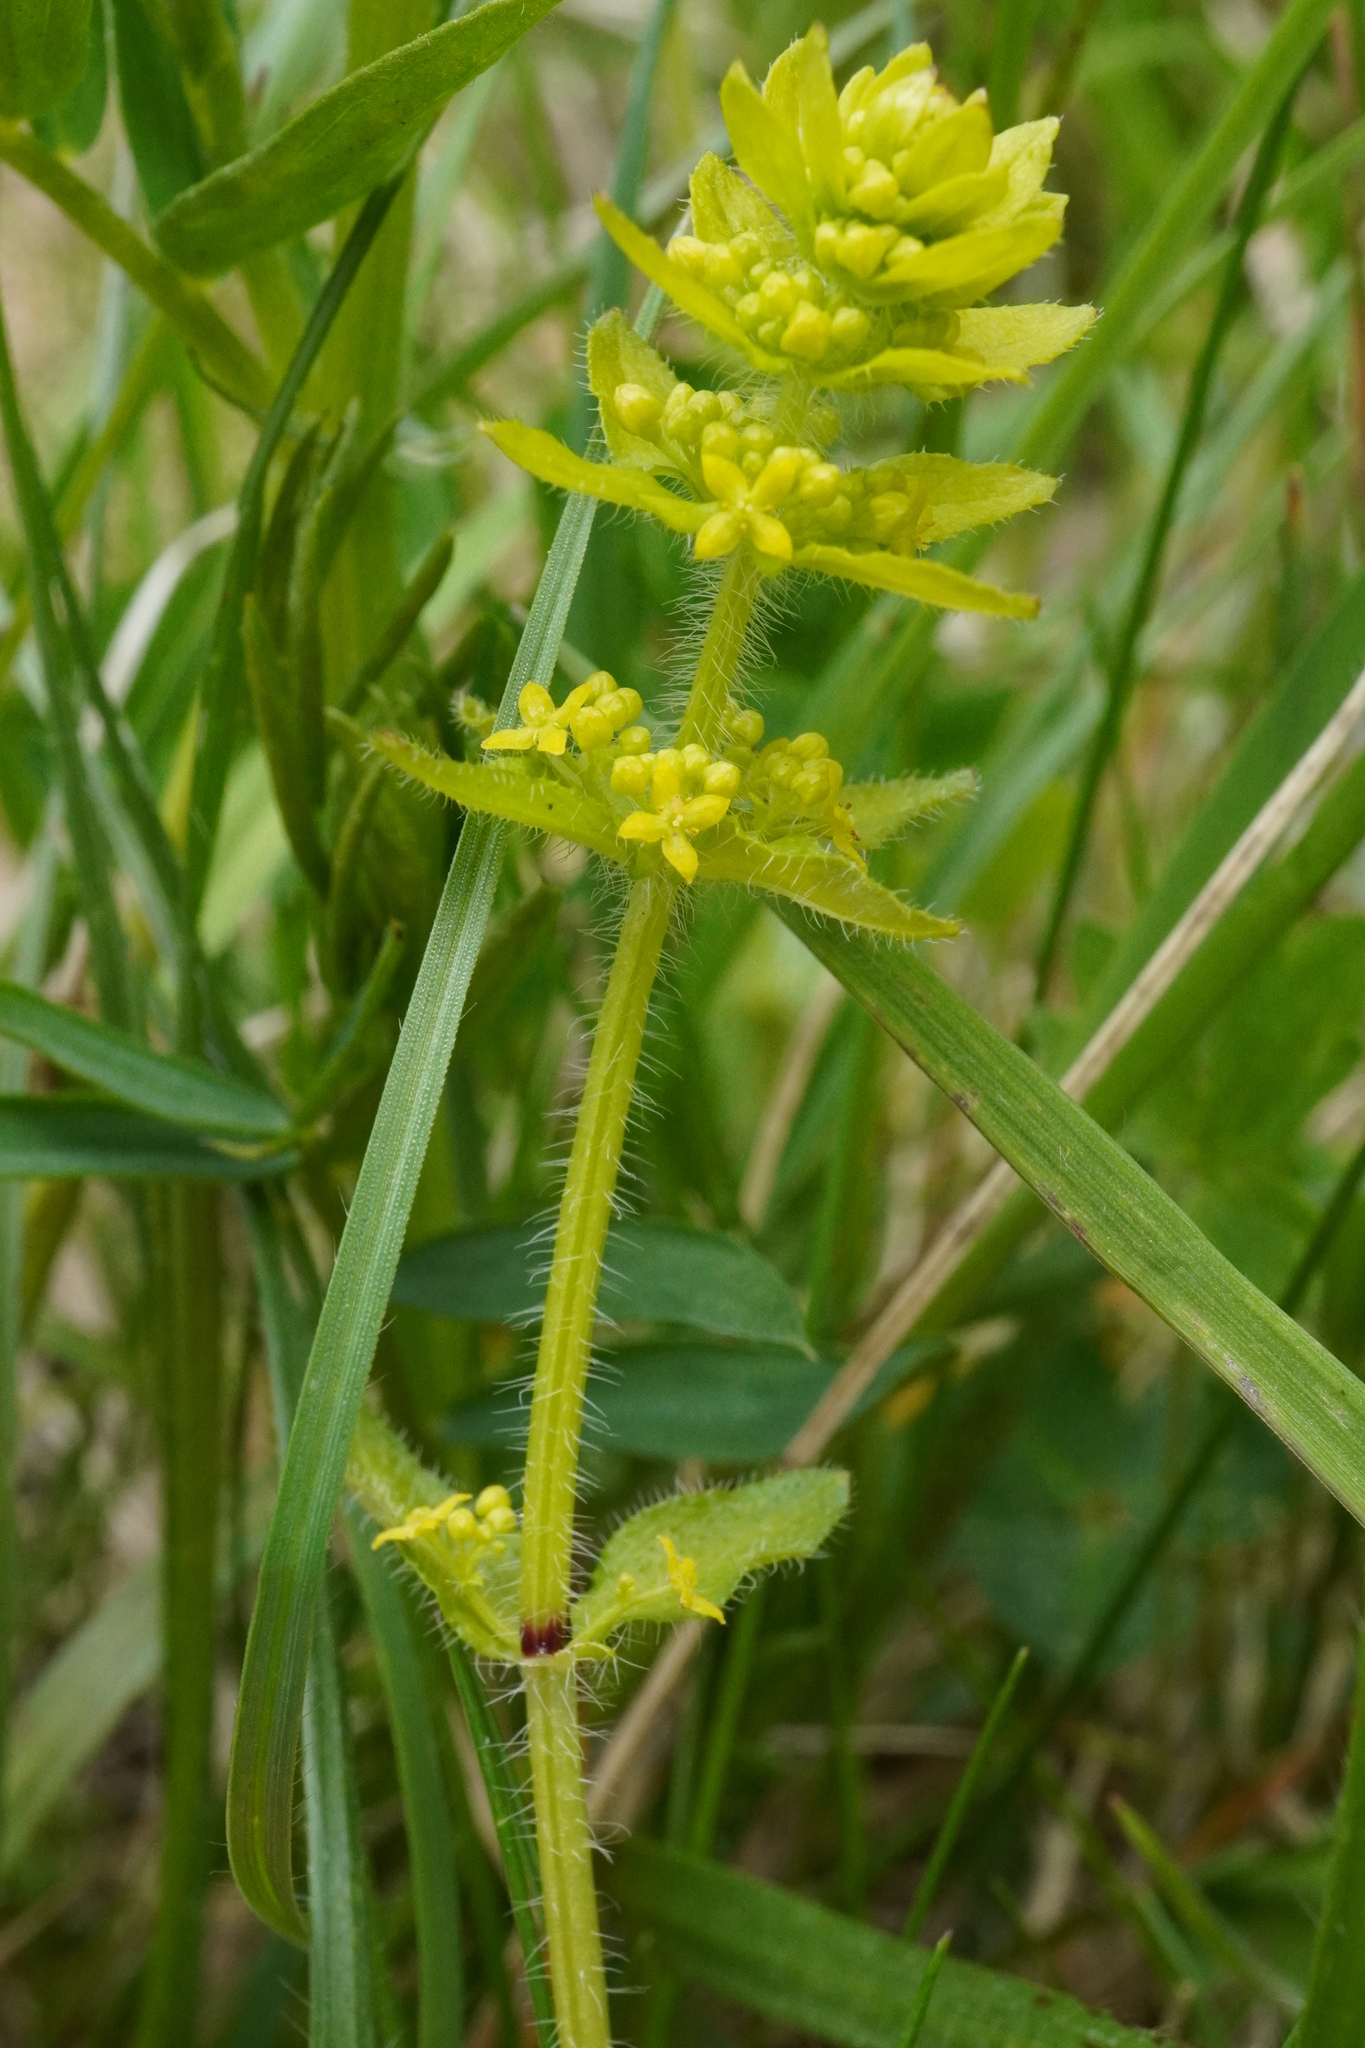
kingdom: Plantae
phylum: Tracheophyta
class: Magnoliopsida
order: Gentianales
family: Rubiaceae
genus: Cruciata
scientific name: Cruciata laevipes
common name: Crosswort
